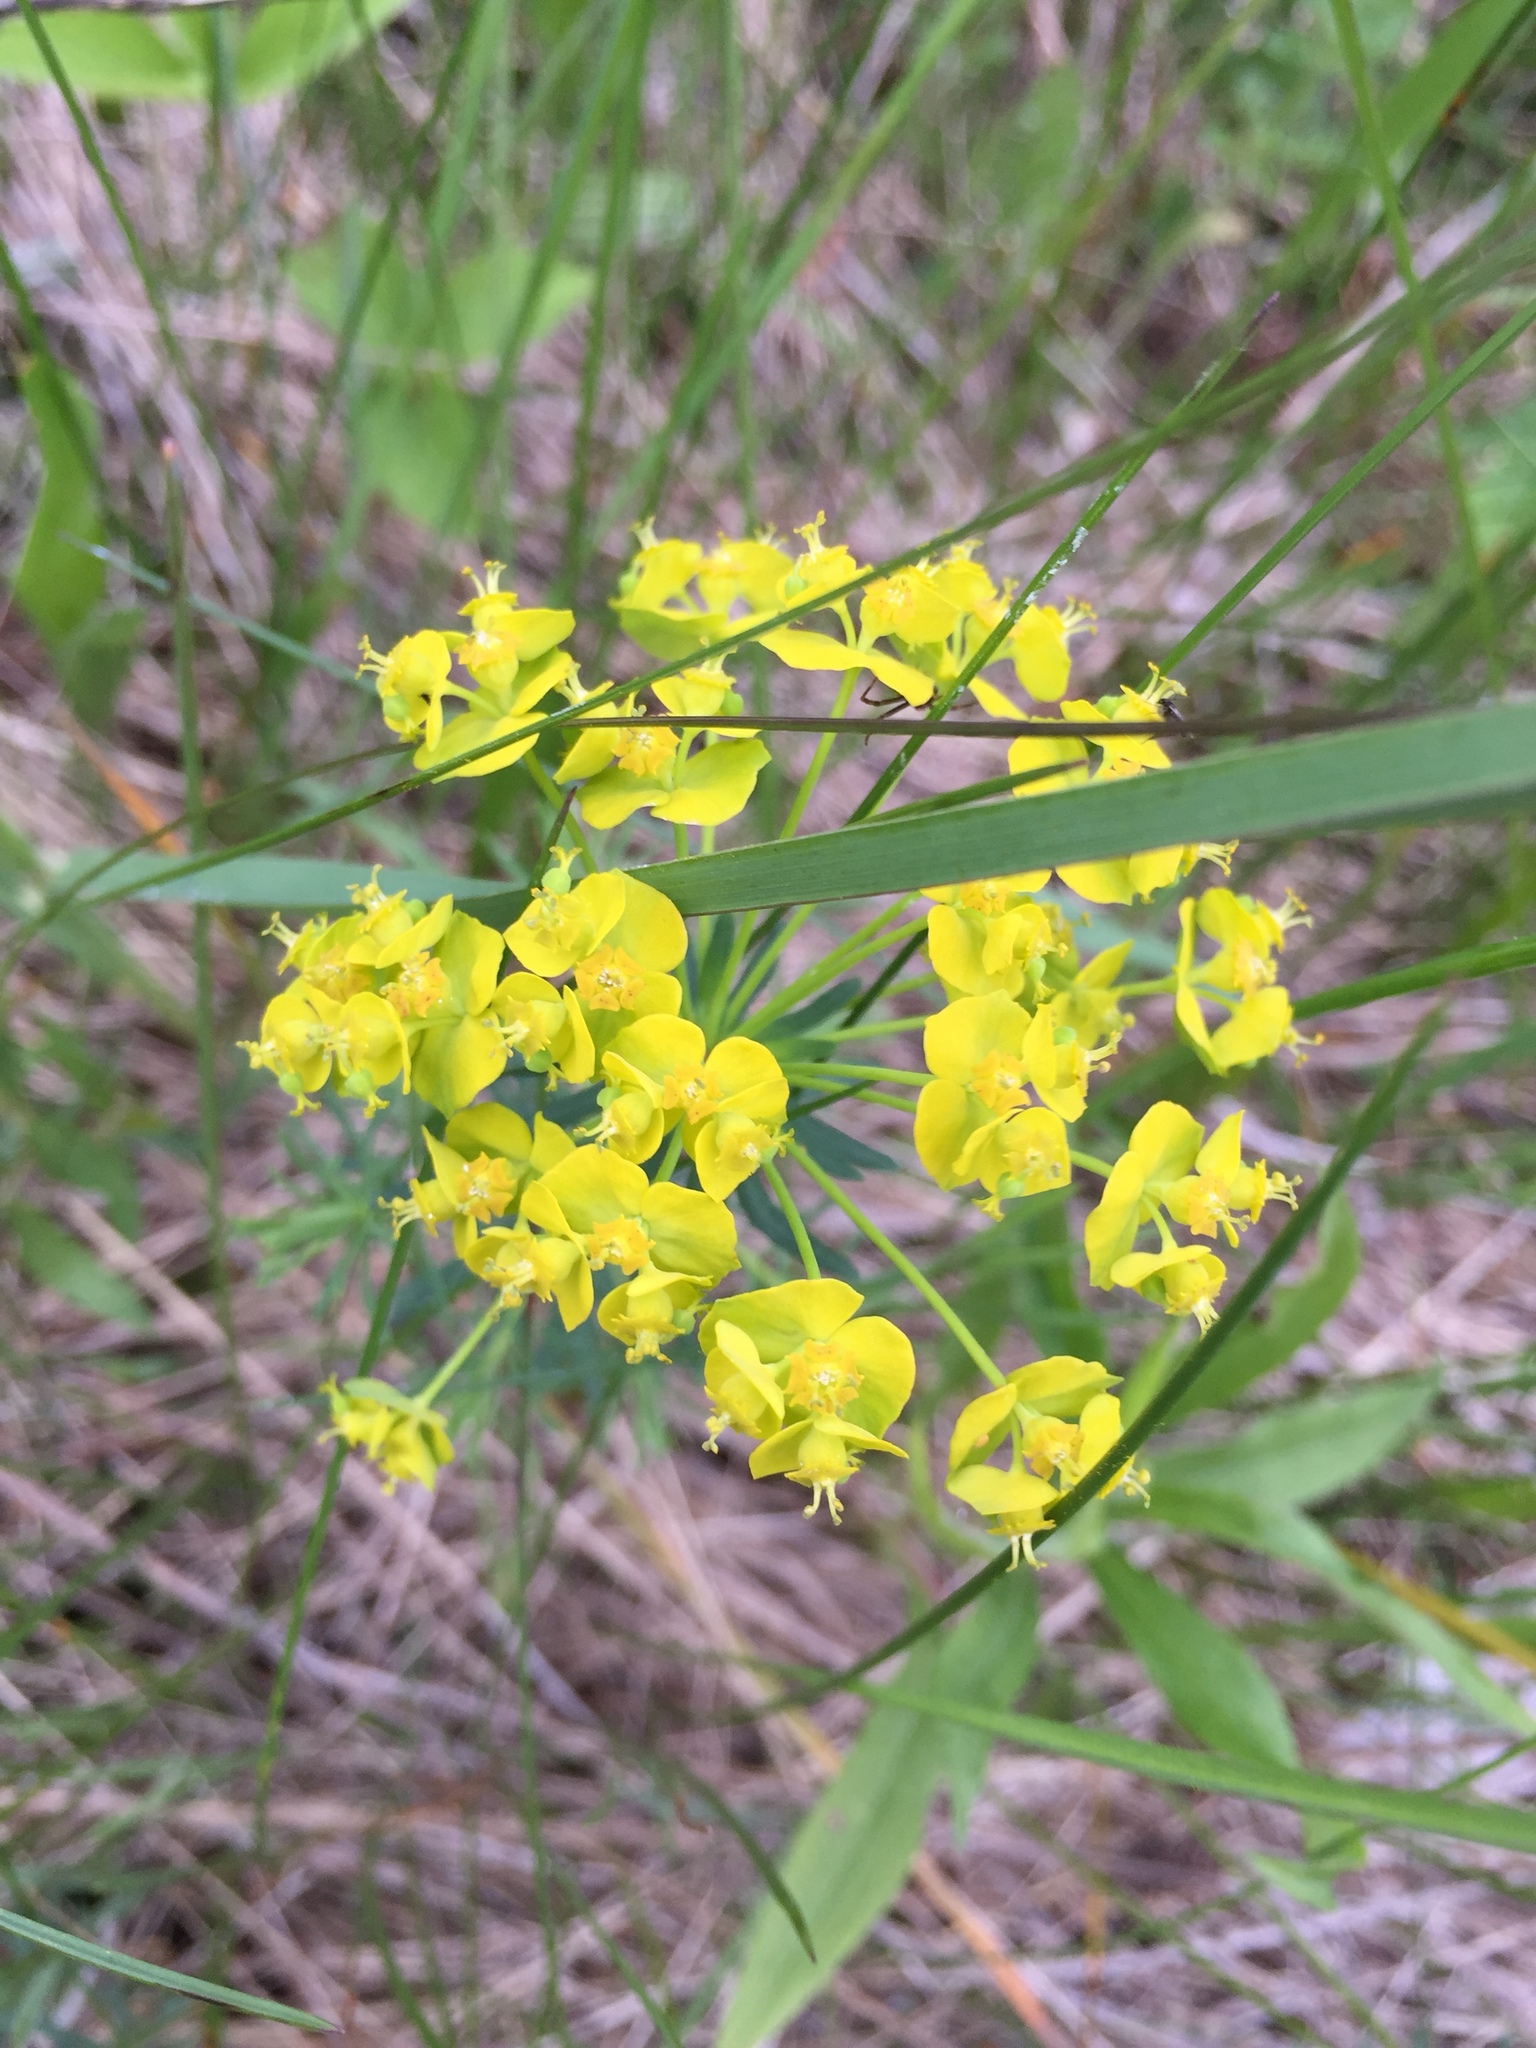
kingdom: Plantae
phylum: Tracheophyta
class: Magnoliopsida
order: Malpighiales
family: Euphorbiaceae
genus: Euphorbia
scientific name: Euphorbia cyparissias
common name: Cypress spurge
